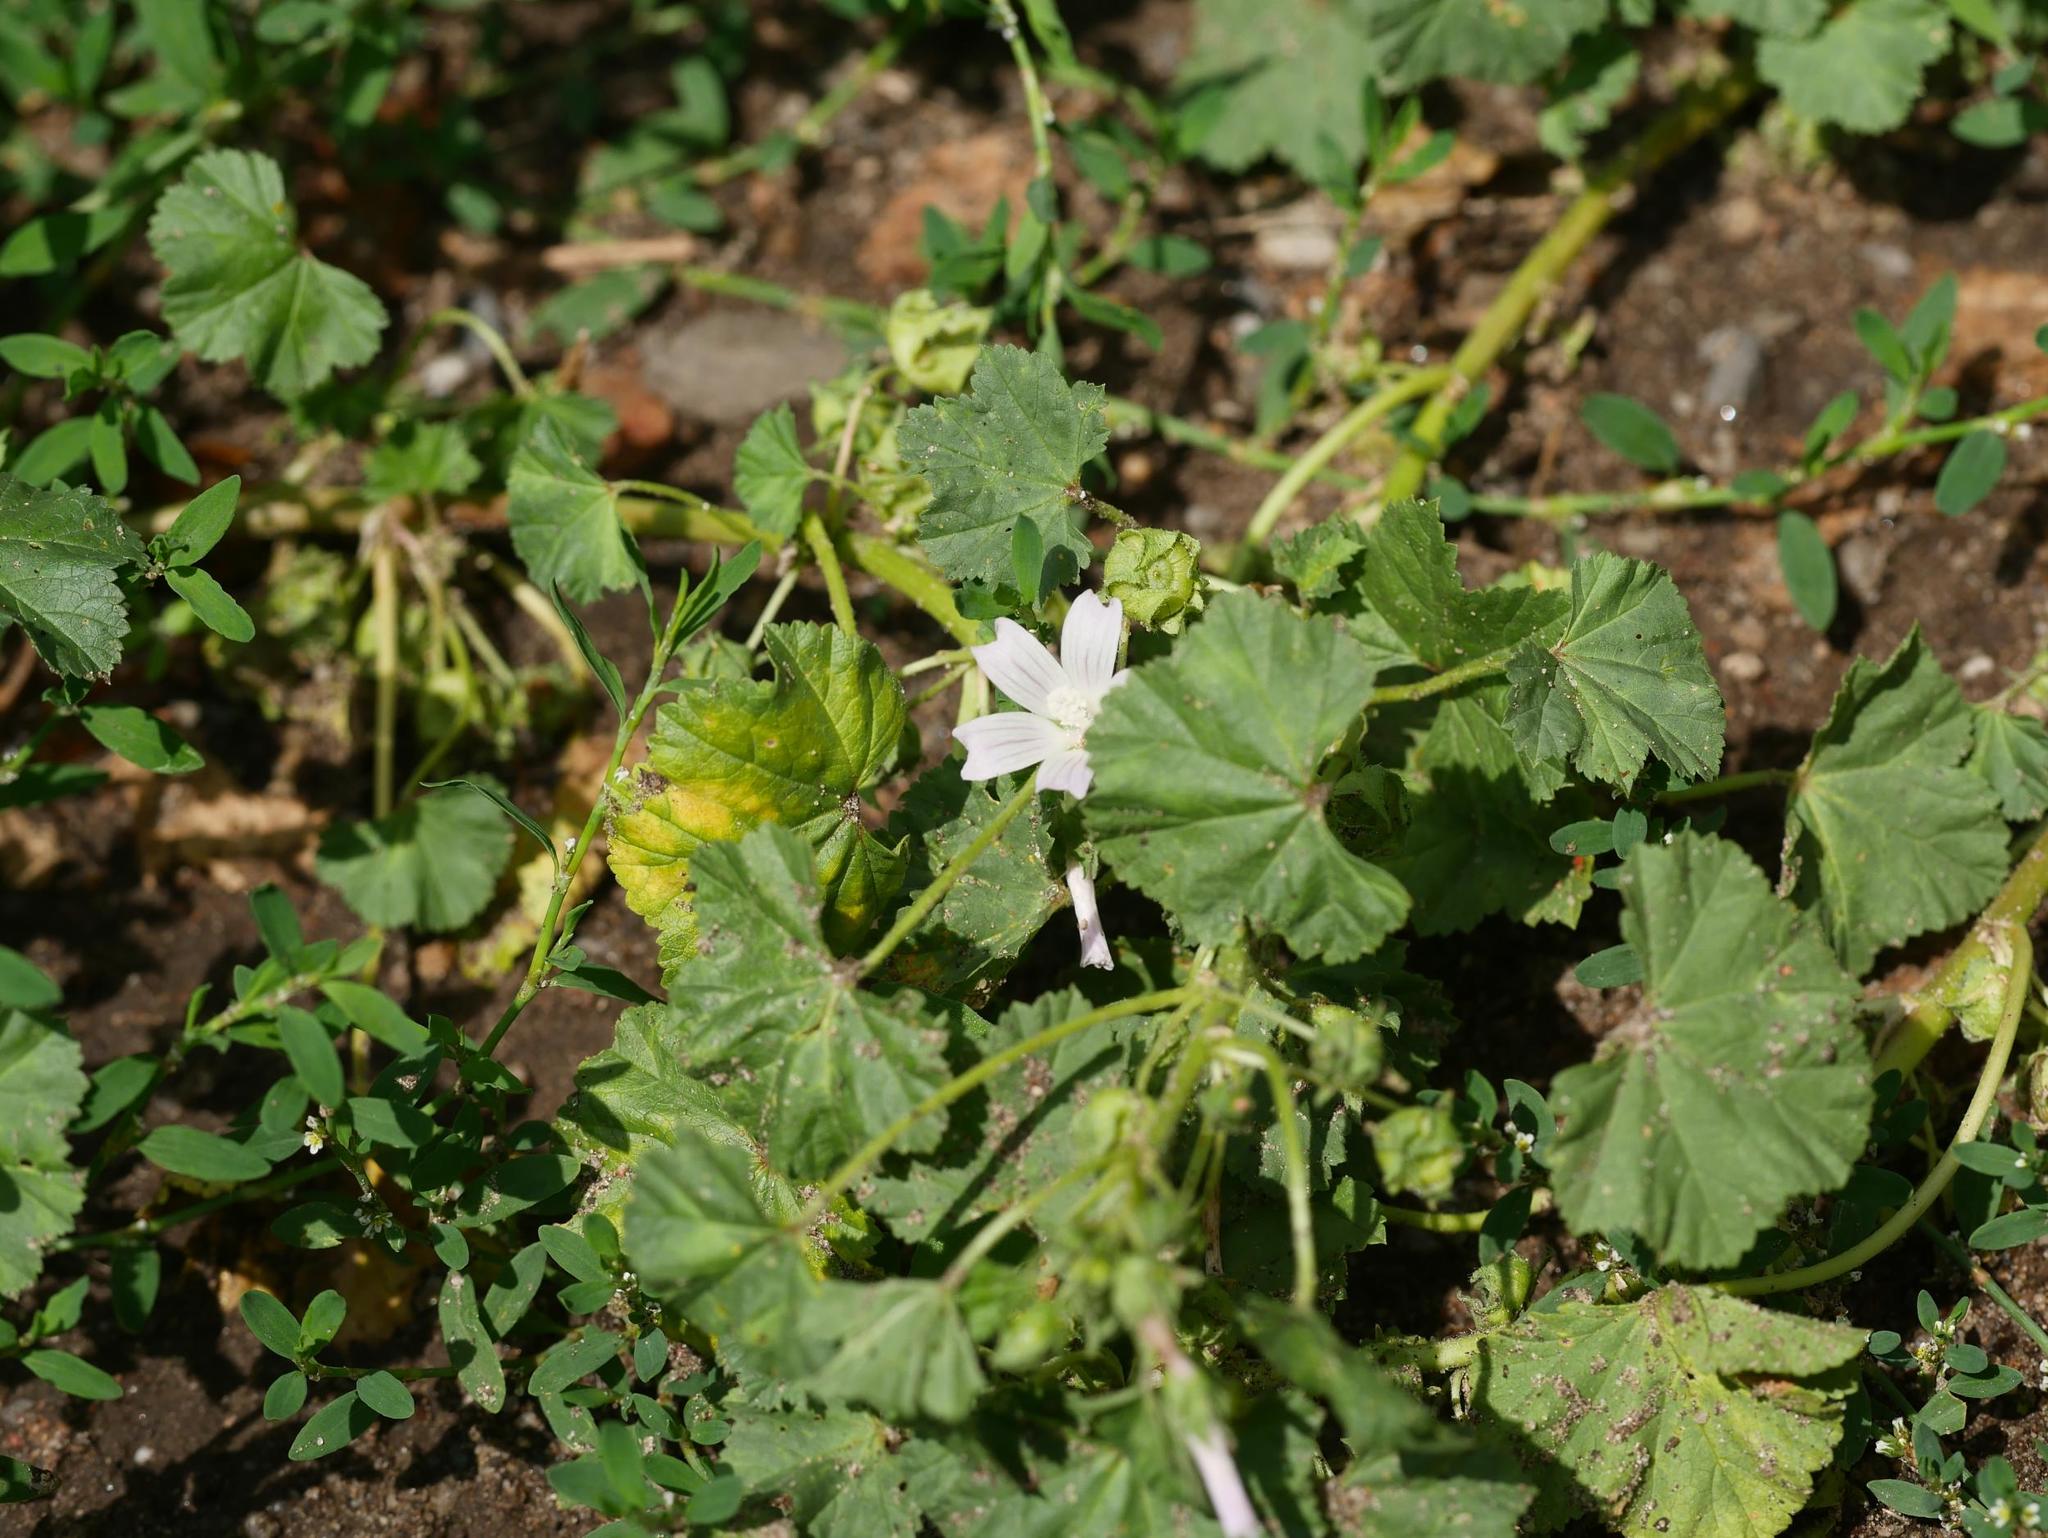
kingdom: Plantae
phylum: Tracheophyta
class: Magnoliopsida
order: Malvales
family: Malvaceae
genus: Malva
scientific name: Malva neglecta
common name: Common mallow
